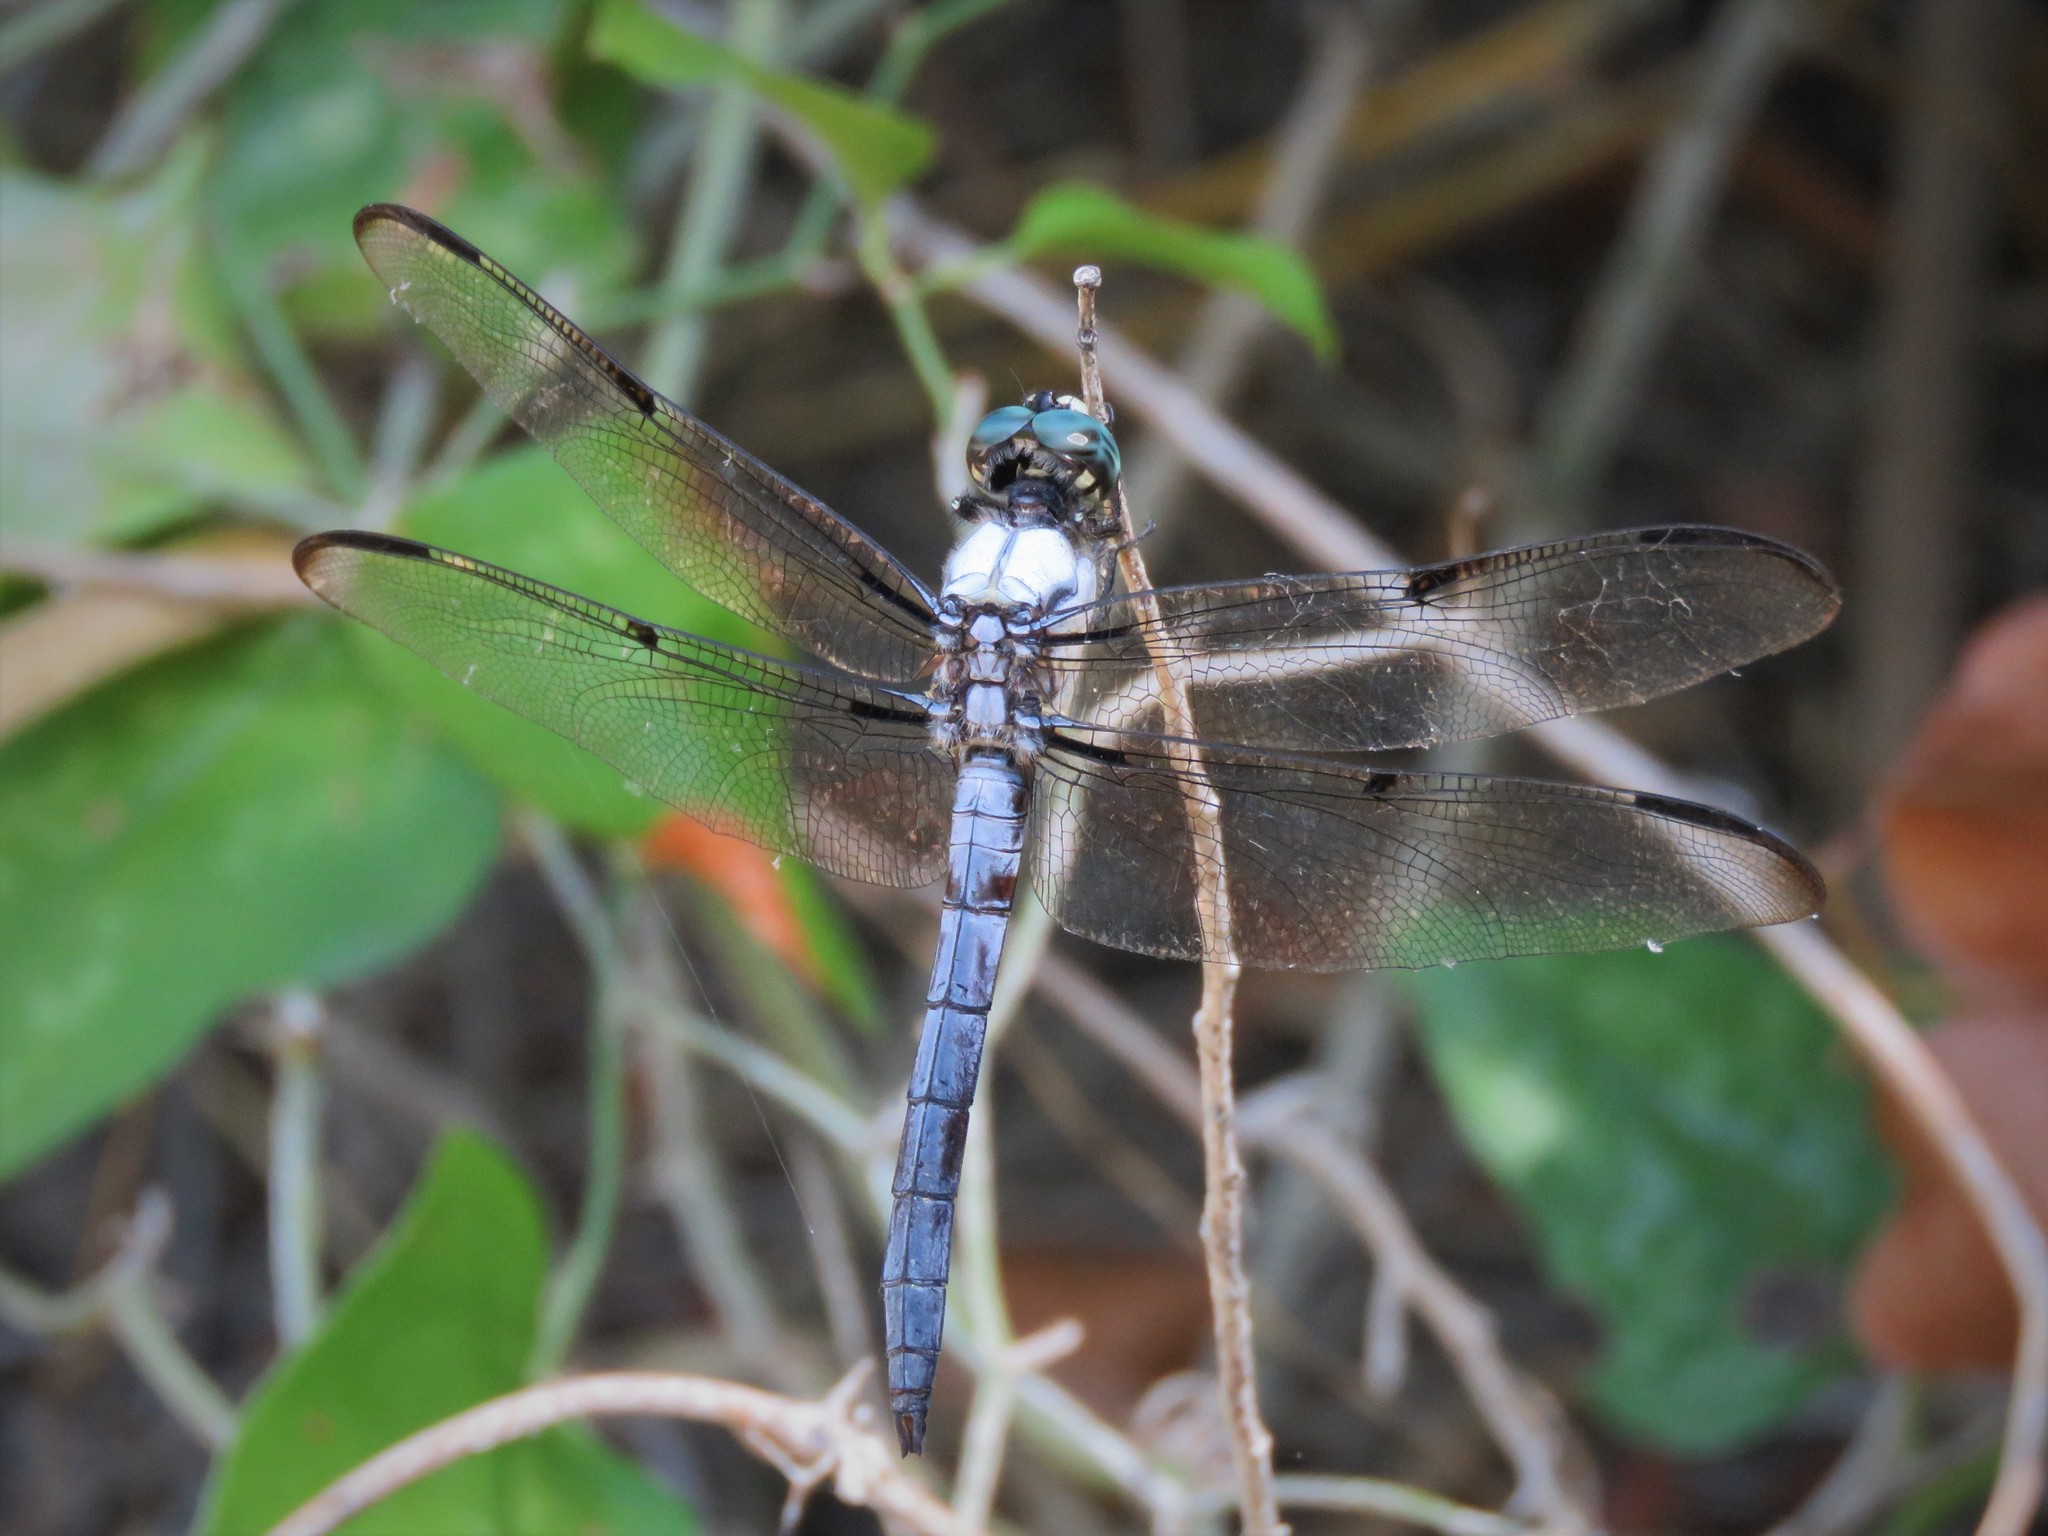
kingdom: Animalia
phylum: Arthropoda
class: Insecta
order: Odonata
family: Libellulidae
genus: Libellula
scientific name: Libellula vibrans
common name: Great blue skimmer
